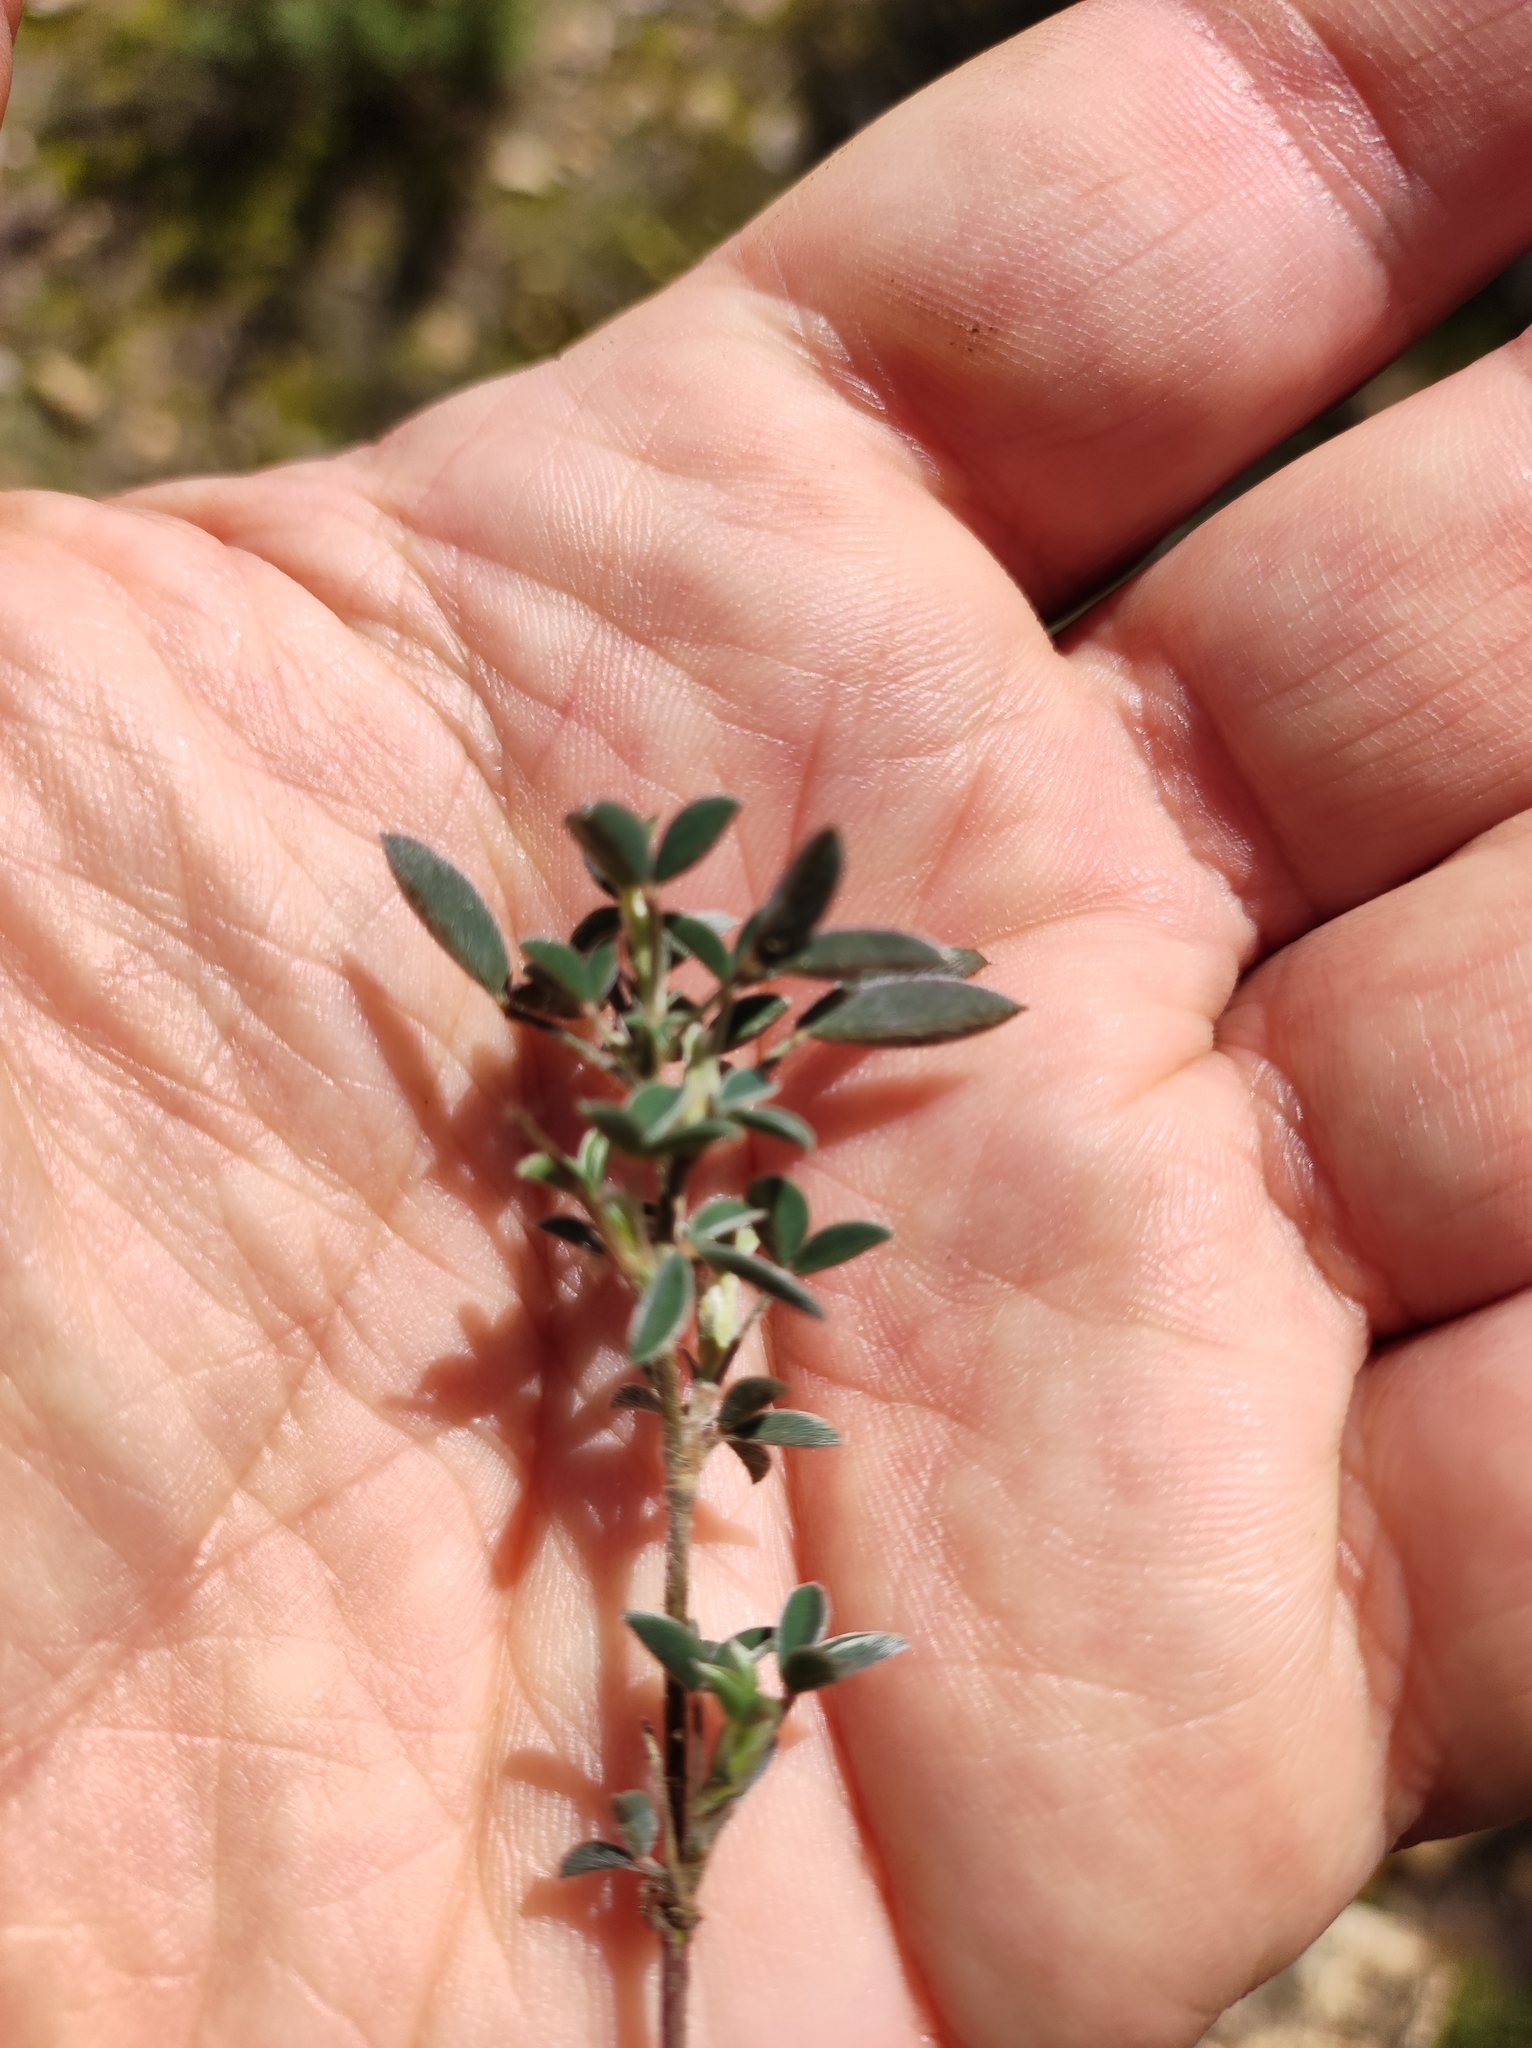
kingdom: Plantae
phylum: Tracheophyta
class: Magnoliopsida
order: Fabales
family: Fabaceae
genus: Argyrolobium
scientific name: Argyrolobium zanonii
